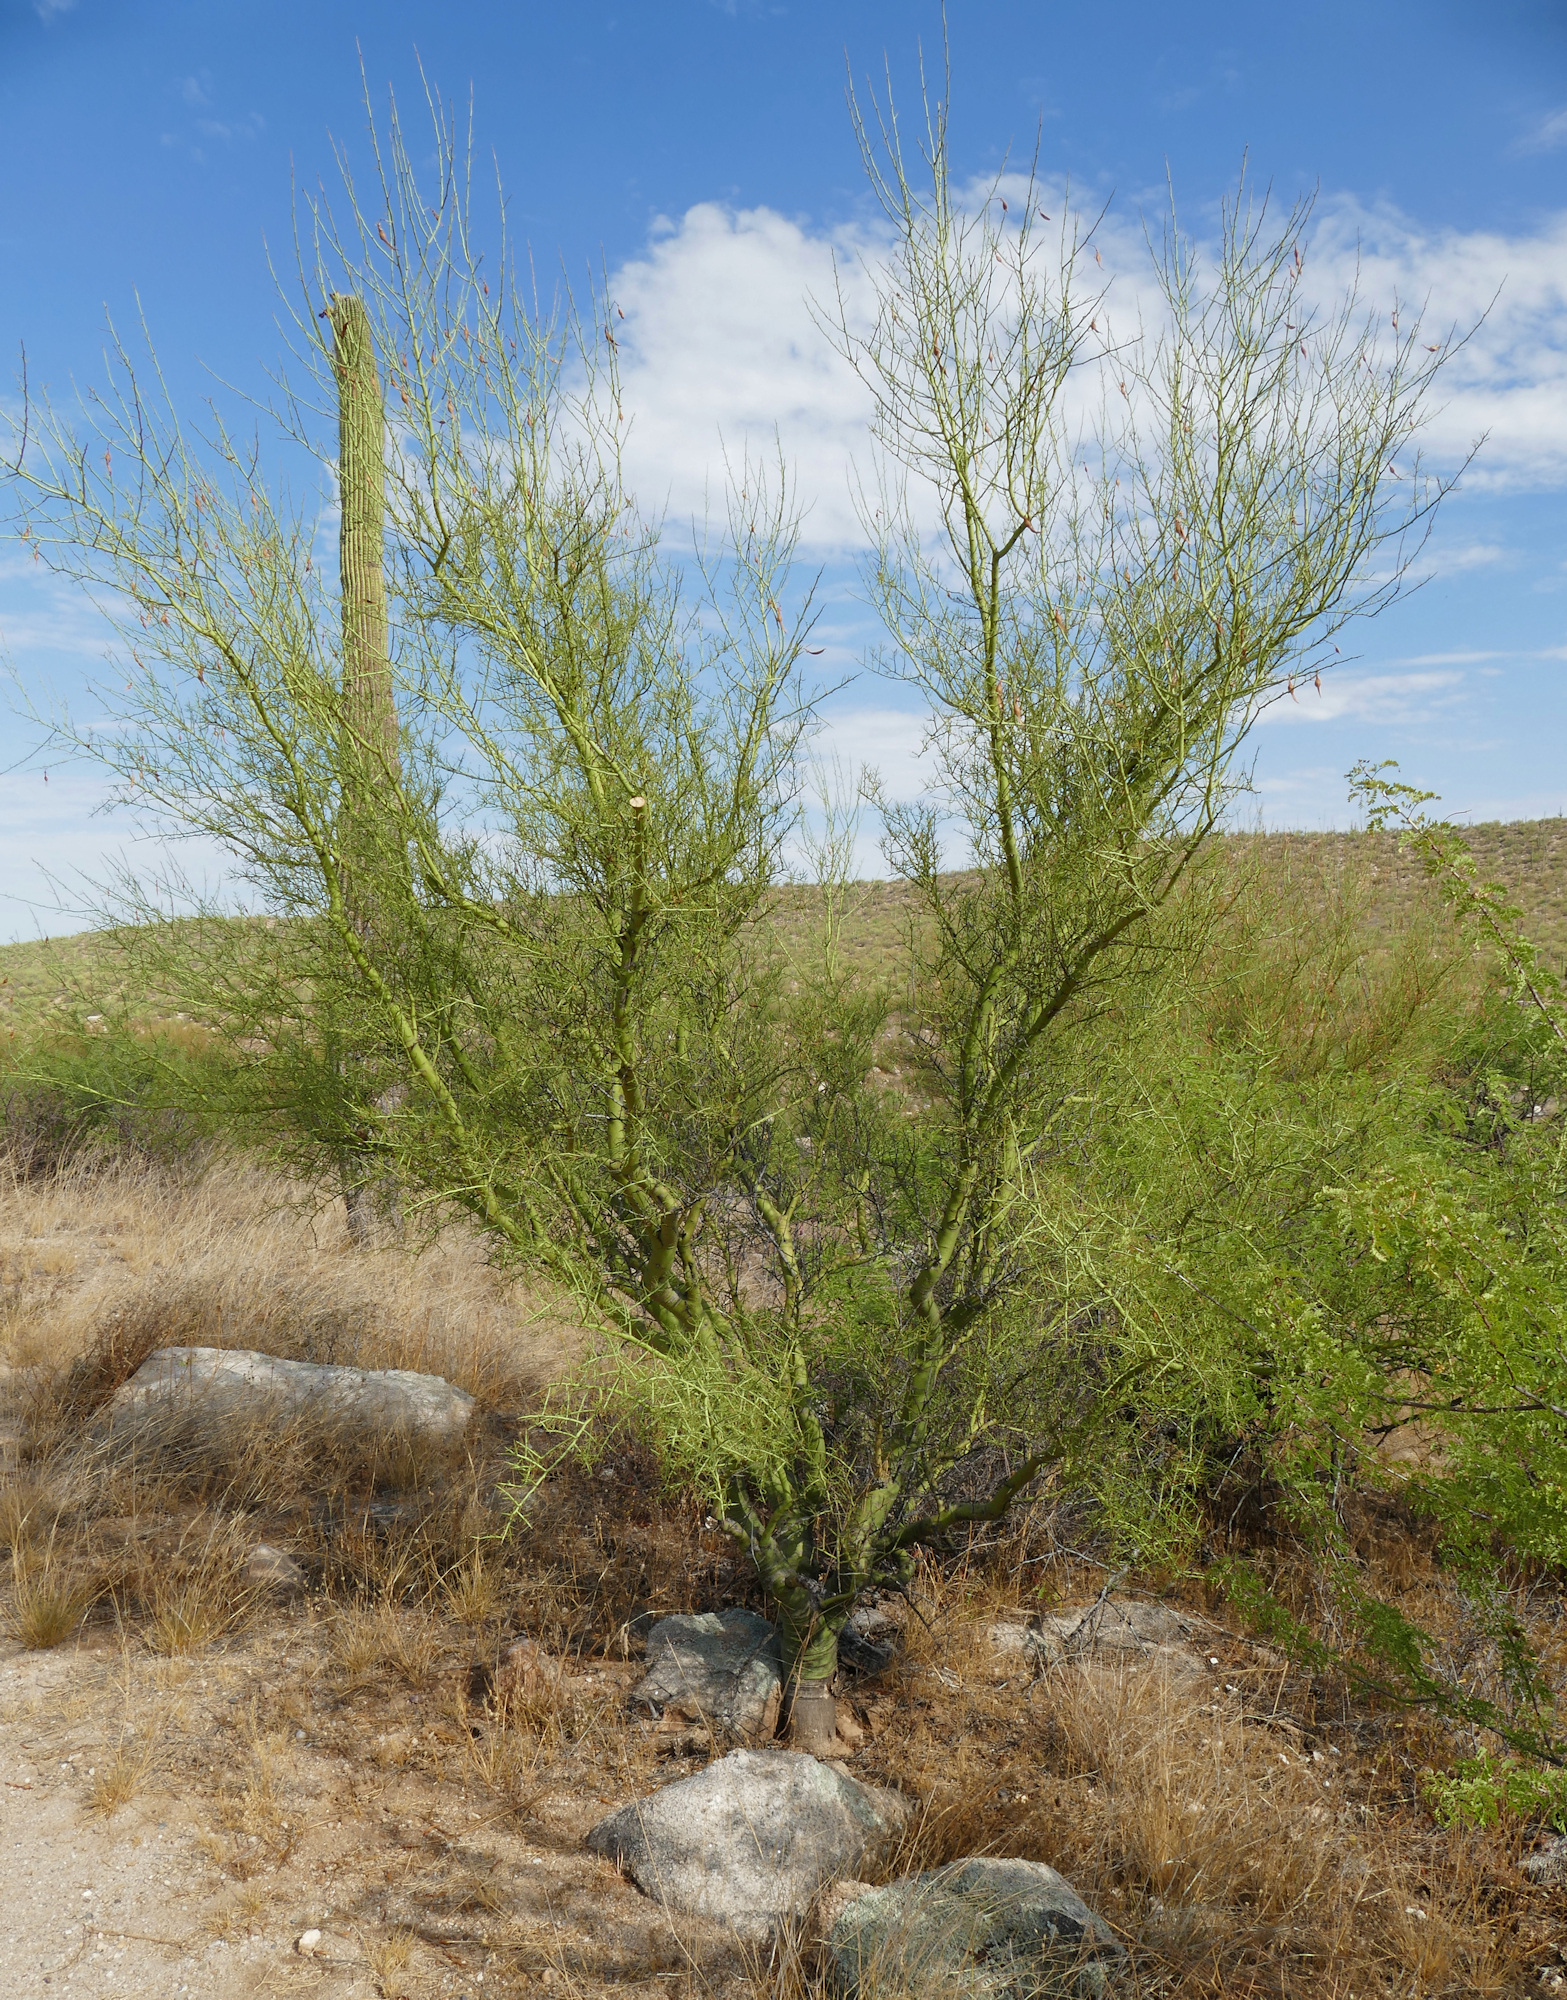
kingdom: Plantae
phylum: Tracheophyta
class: Magnoliopsida
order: Fabales
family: Fabaceae
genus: Parkinsonia
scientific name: Parkinsonia microphylla
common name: Yellow paloverde
